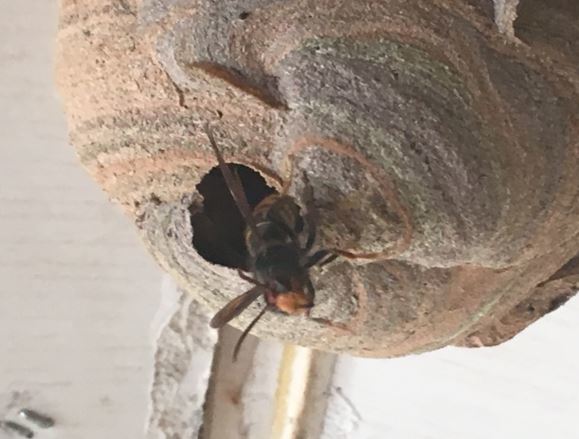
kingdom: Animalia
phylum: Arthropoda
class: Insecta
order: Hymenoptera
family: Vespidae
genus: Vespa
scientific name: Vespa velutina
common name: Asian hornet
